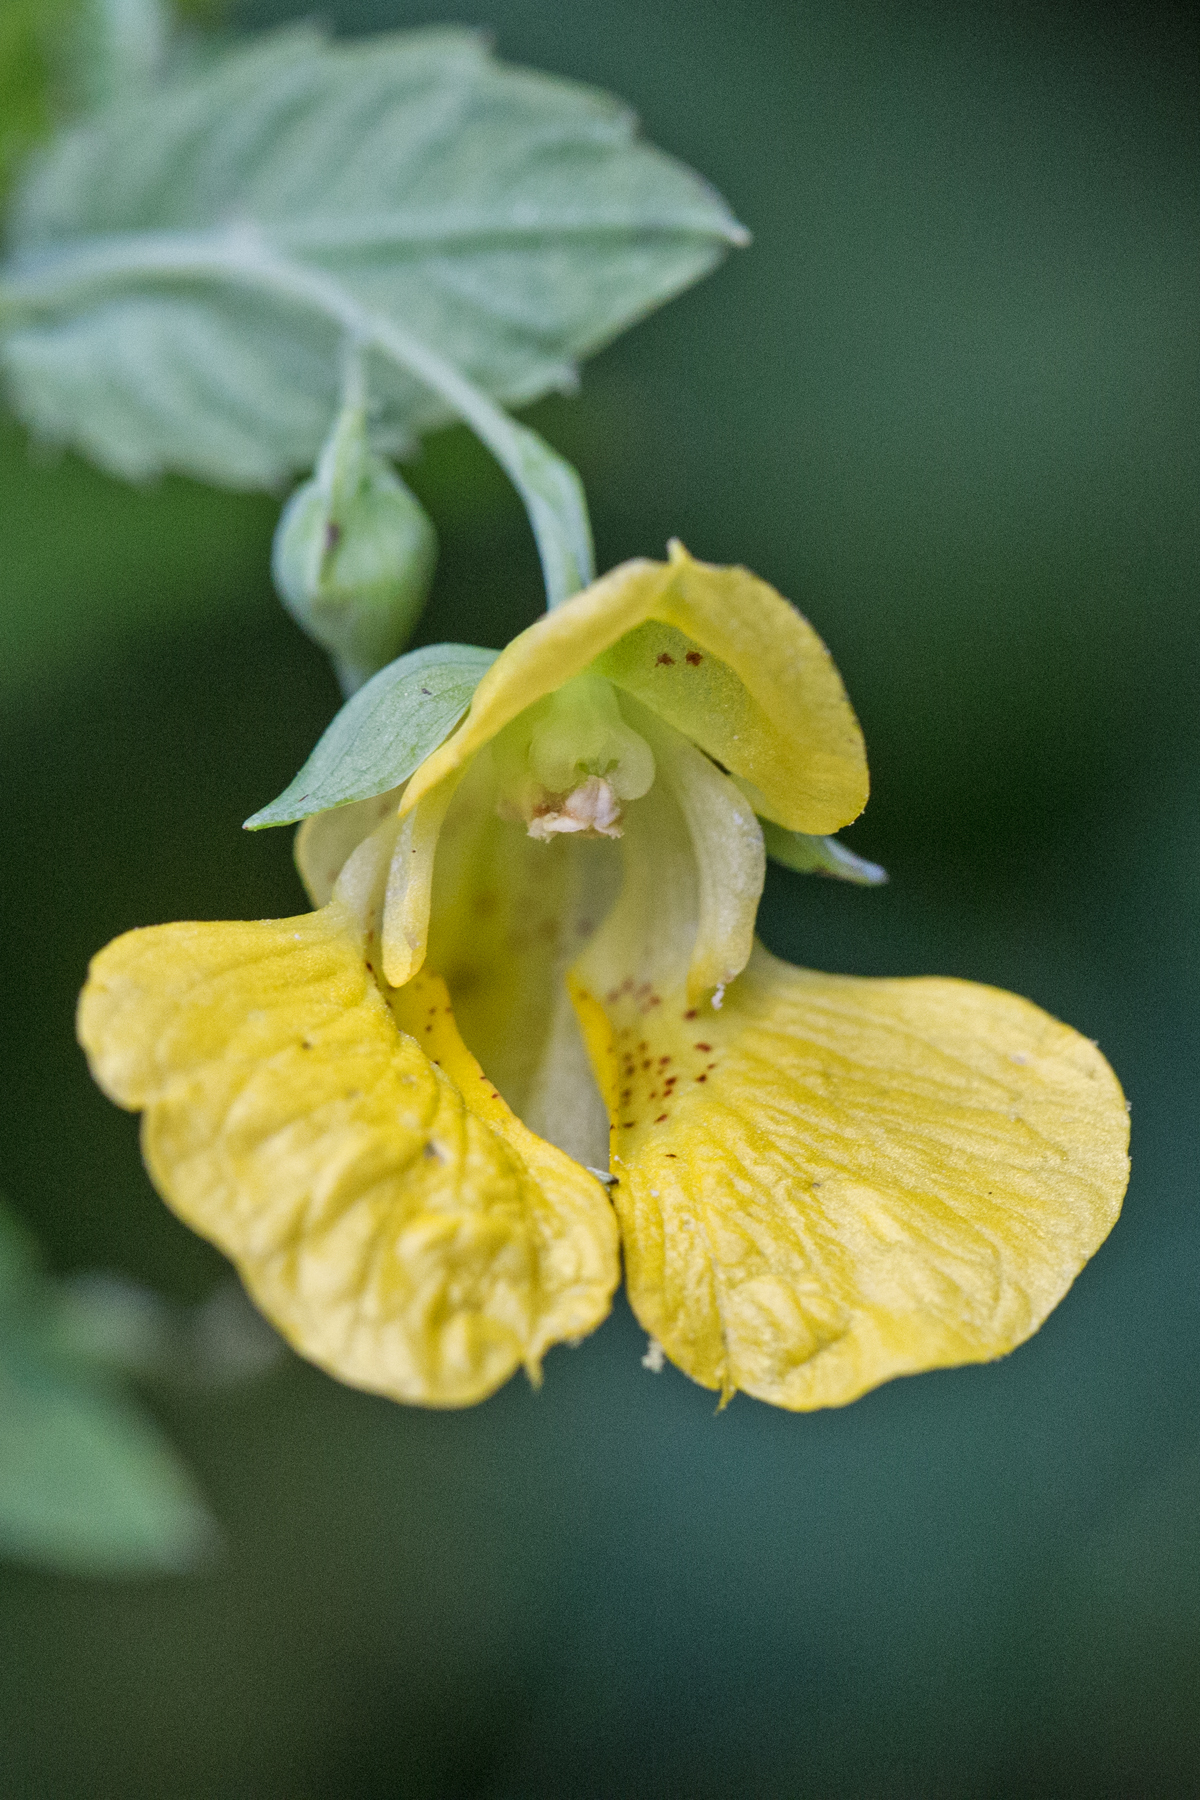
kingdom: Plantae
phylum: Tracheophyta
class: Magnoliopsida
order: Ericales
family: Balsaminaceae
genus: Impatiens
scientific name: Impatiens pallida
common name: Pale snapweed
